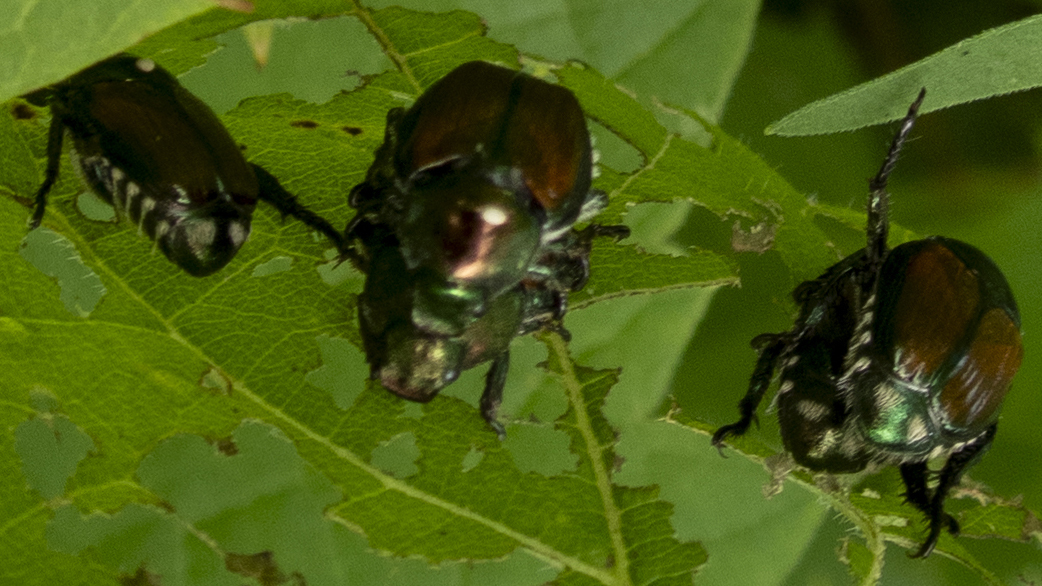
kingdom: Animalia
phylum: Arthropoda
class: Insecta
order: Coleoptera
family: Scarabaeidae
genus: Popillia
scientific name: Popillia japonica
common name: Japanese beetle
